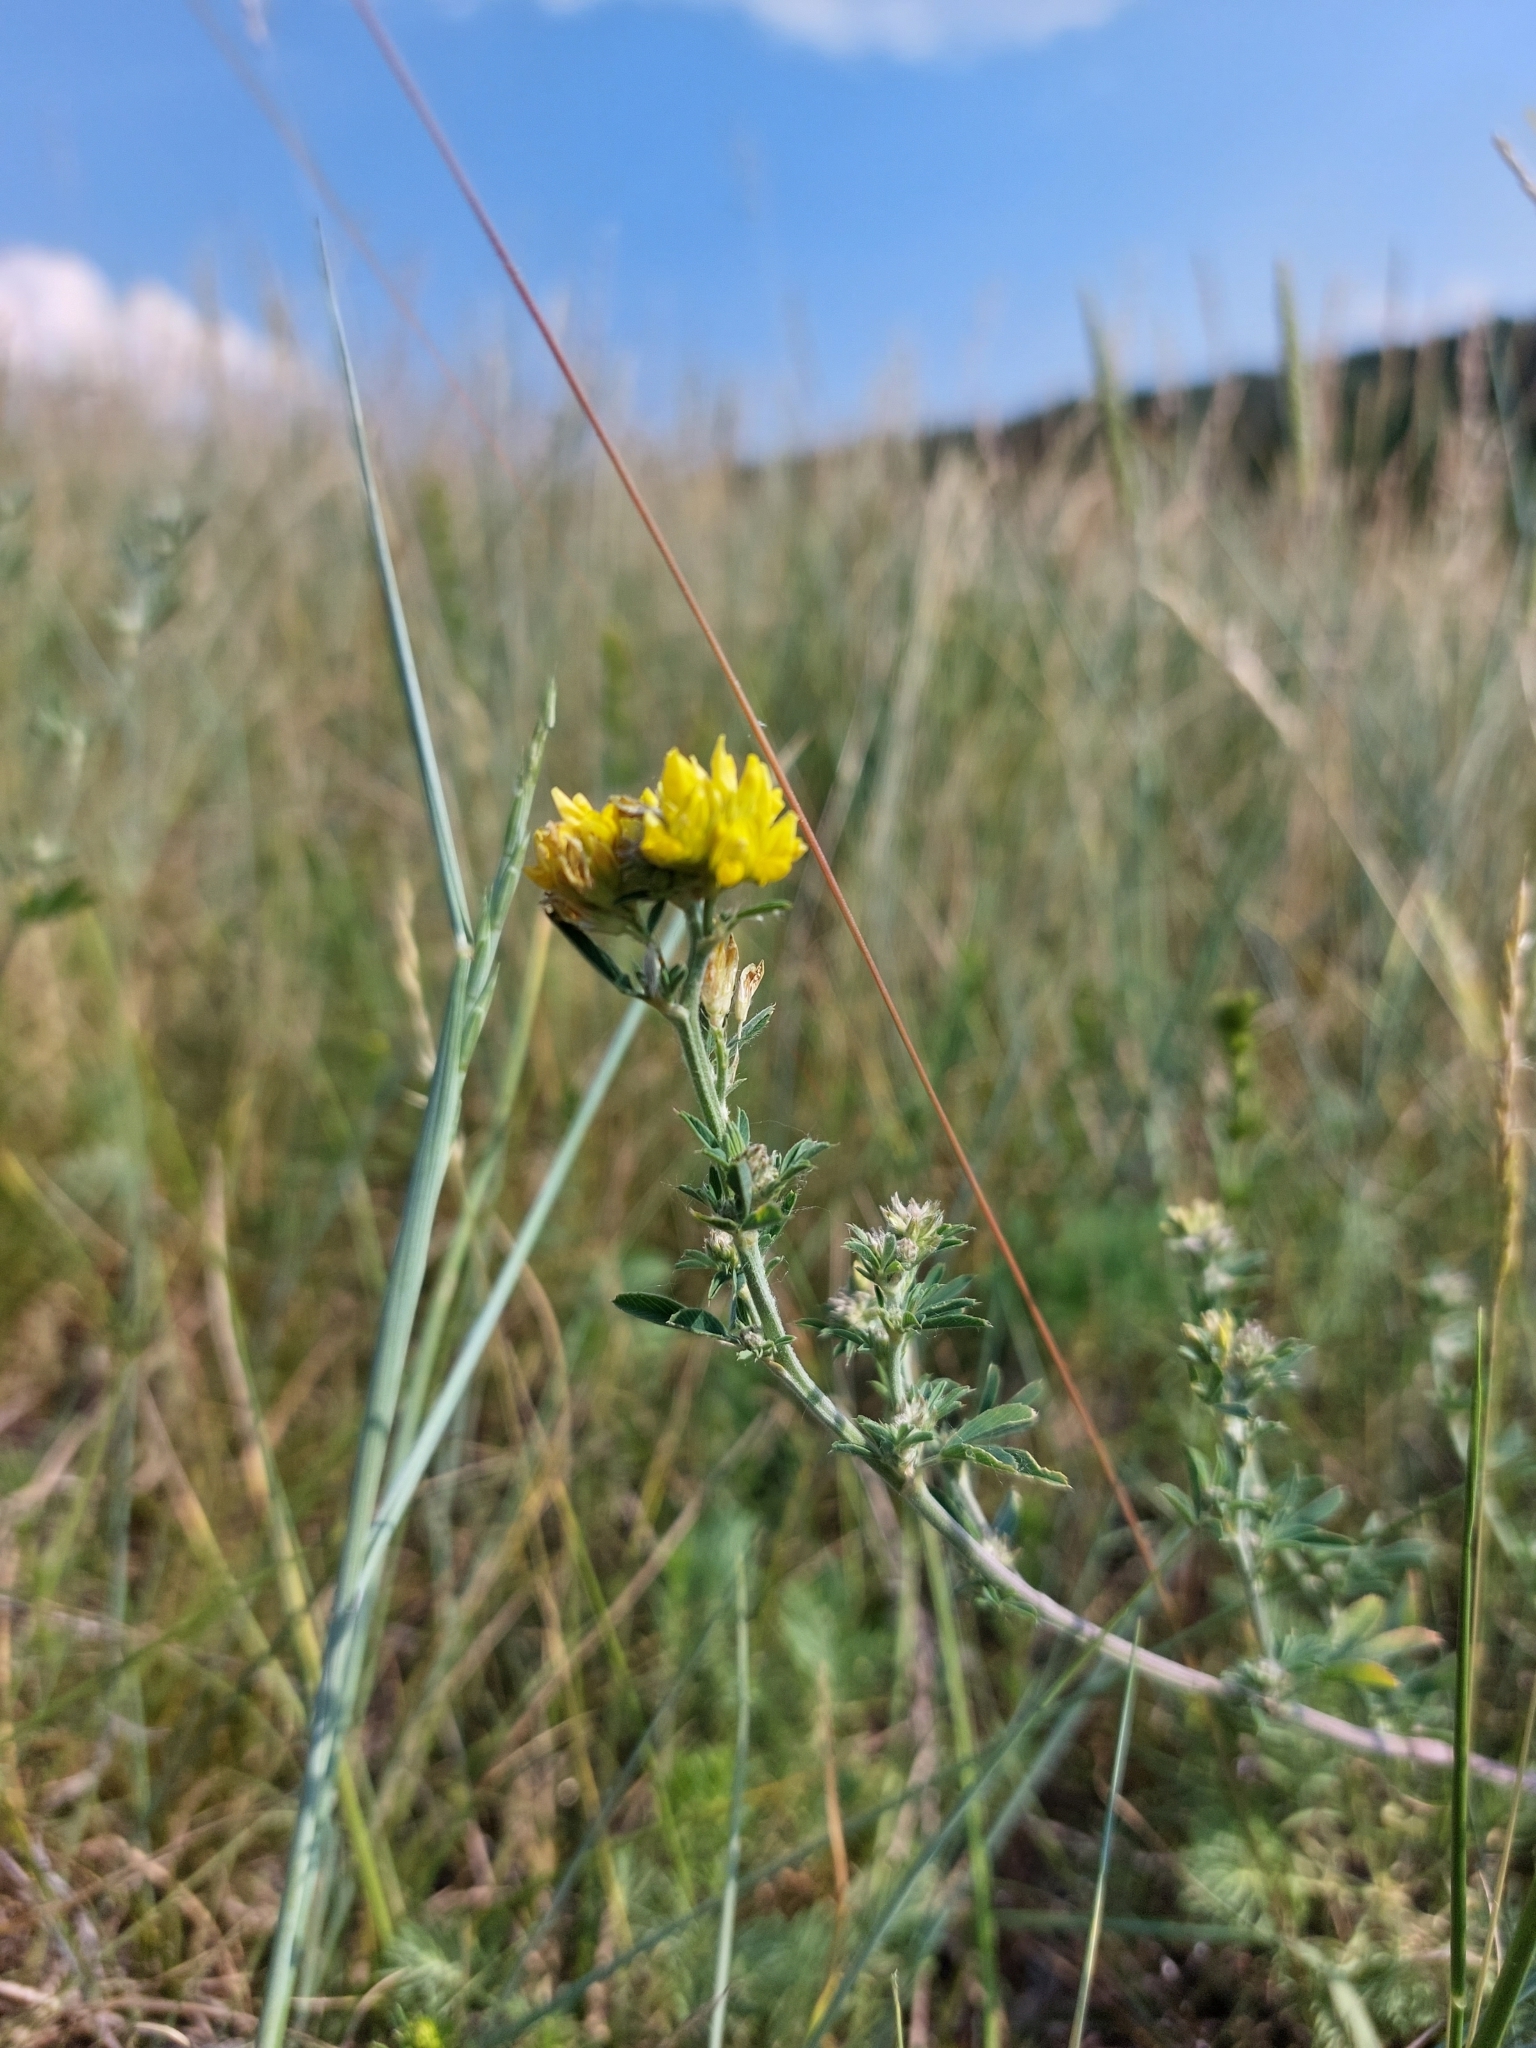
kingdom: Plantae
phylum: Tracheophyta
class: Magnoliopsida
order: Fabales
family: Fabaceae
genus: Medicago
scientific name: Medicago falcata
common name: Sickle medick
